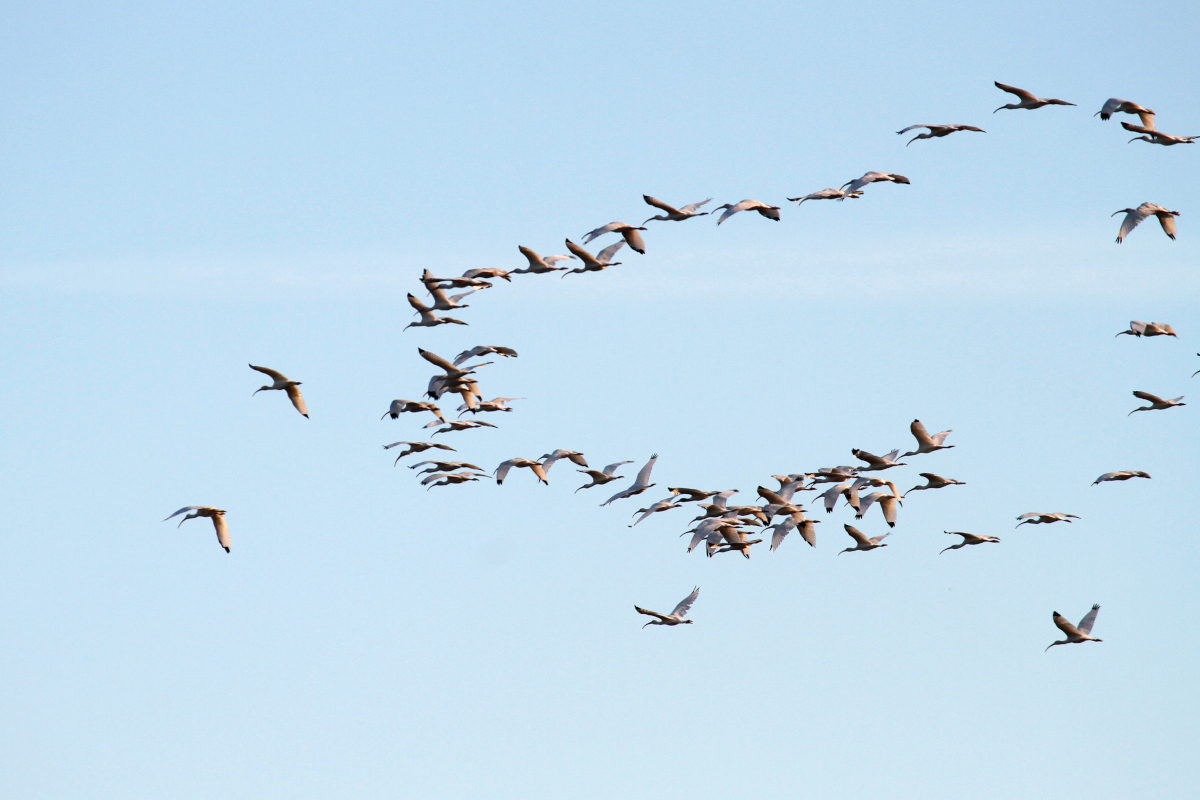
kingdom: Animalia
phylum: Chordata
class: Aves
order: Pelecaniformes
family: Threskiornithidae
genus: Eudocimus
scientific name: Eudocimus albus
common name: White ibis
